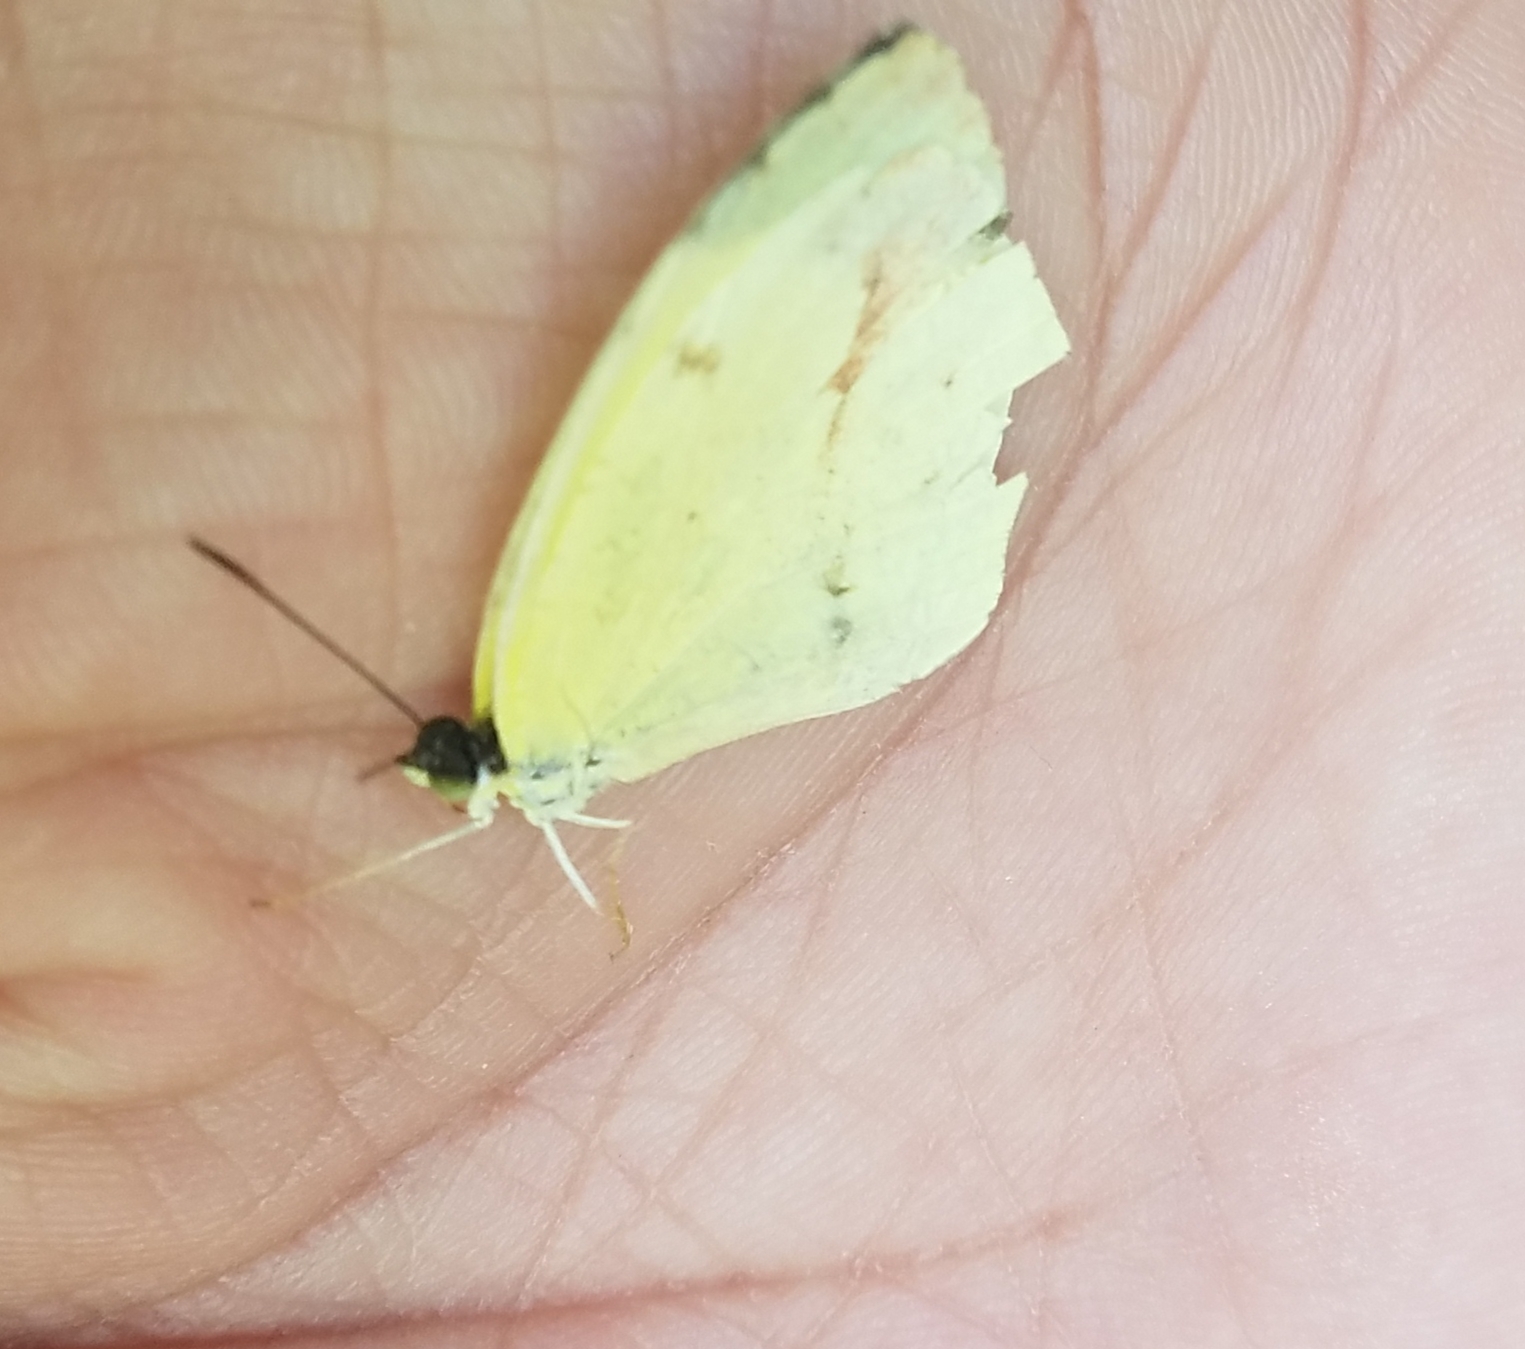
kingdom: Animalia
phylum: Arthropoda
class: Insecta
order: Lepidoptera
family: Pieridae
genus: Abaeis
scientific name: Abaeis boisduvaliana
